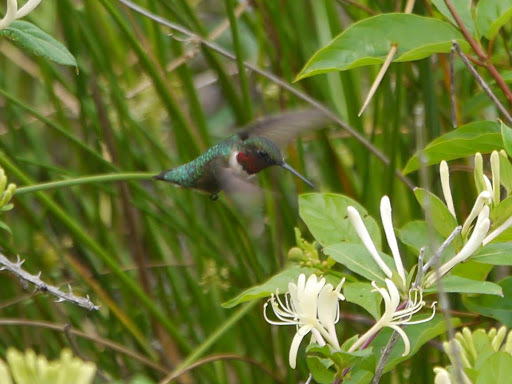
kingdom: Animalia
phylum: Chordata
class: Aves
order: Apodiformes
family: Trochilidae
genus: Archilochus
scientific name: Archilochus colubris
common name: Ruby-throated hummingbird
